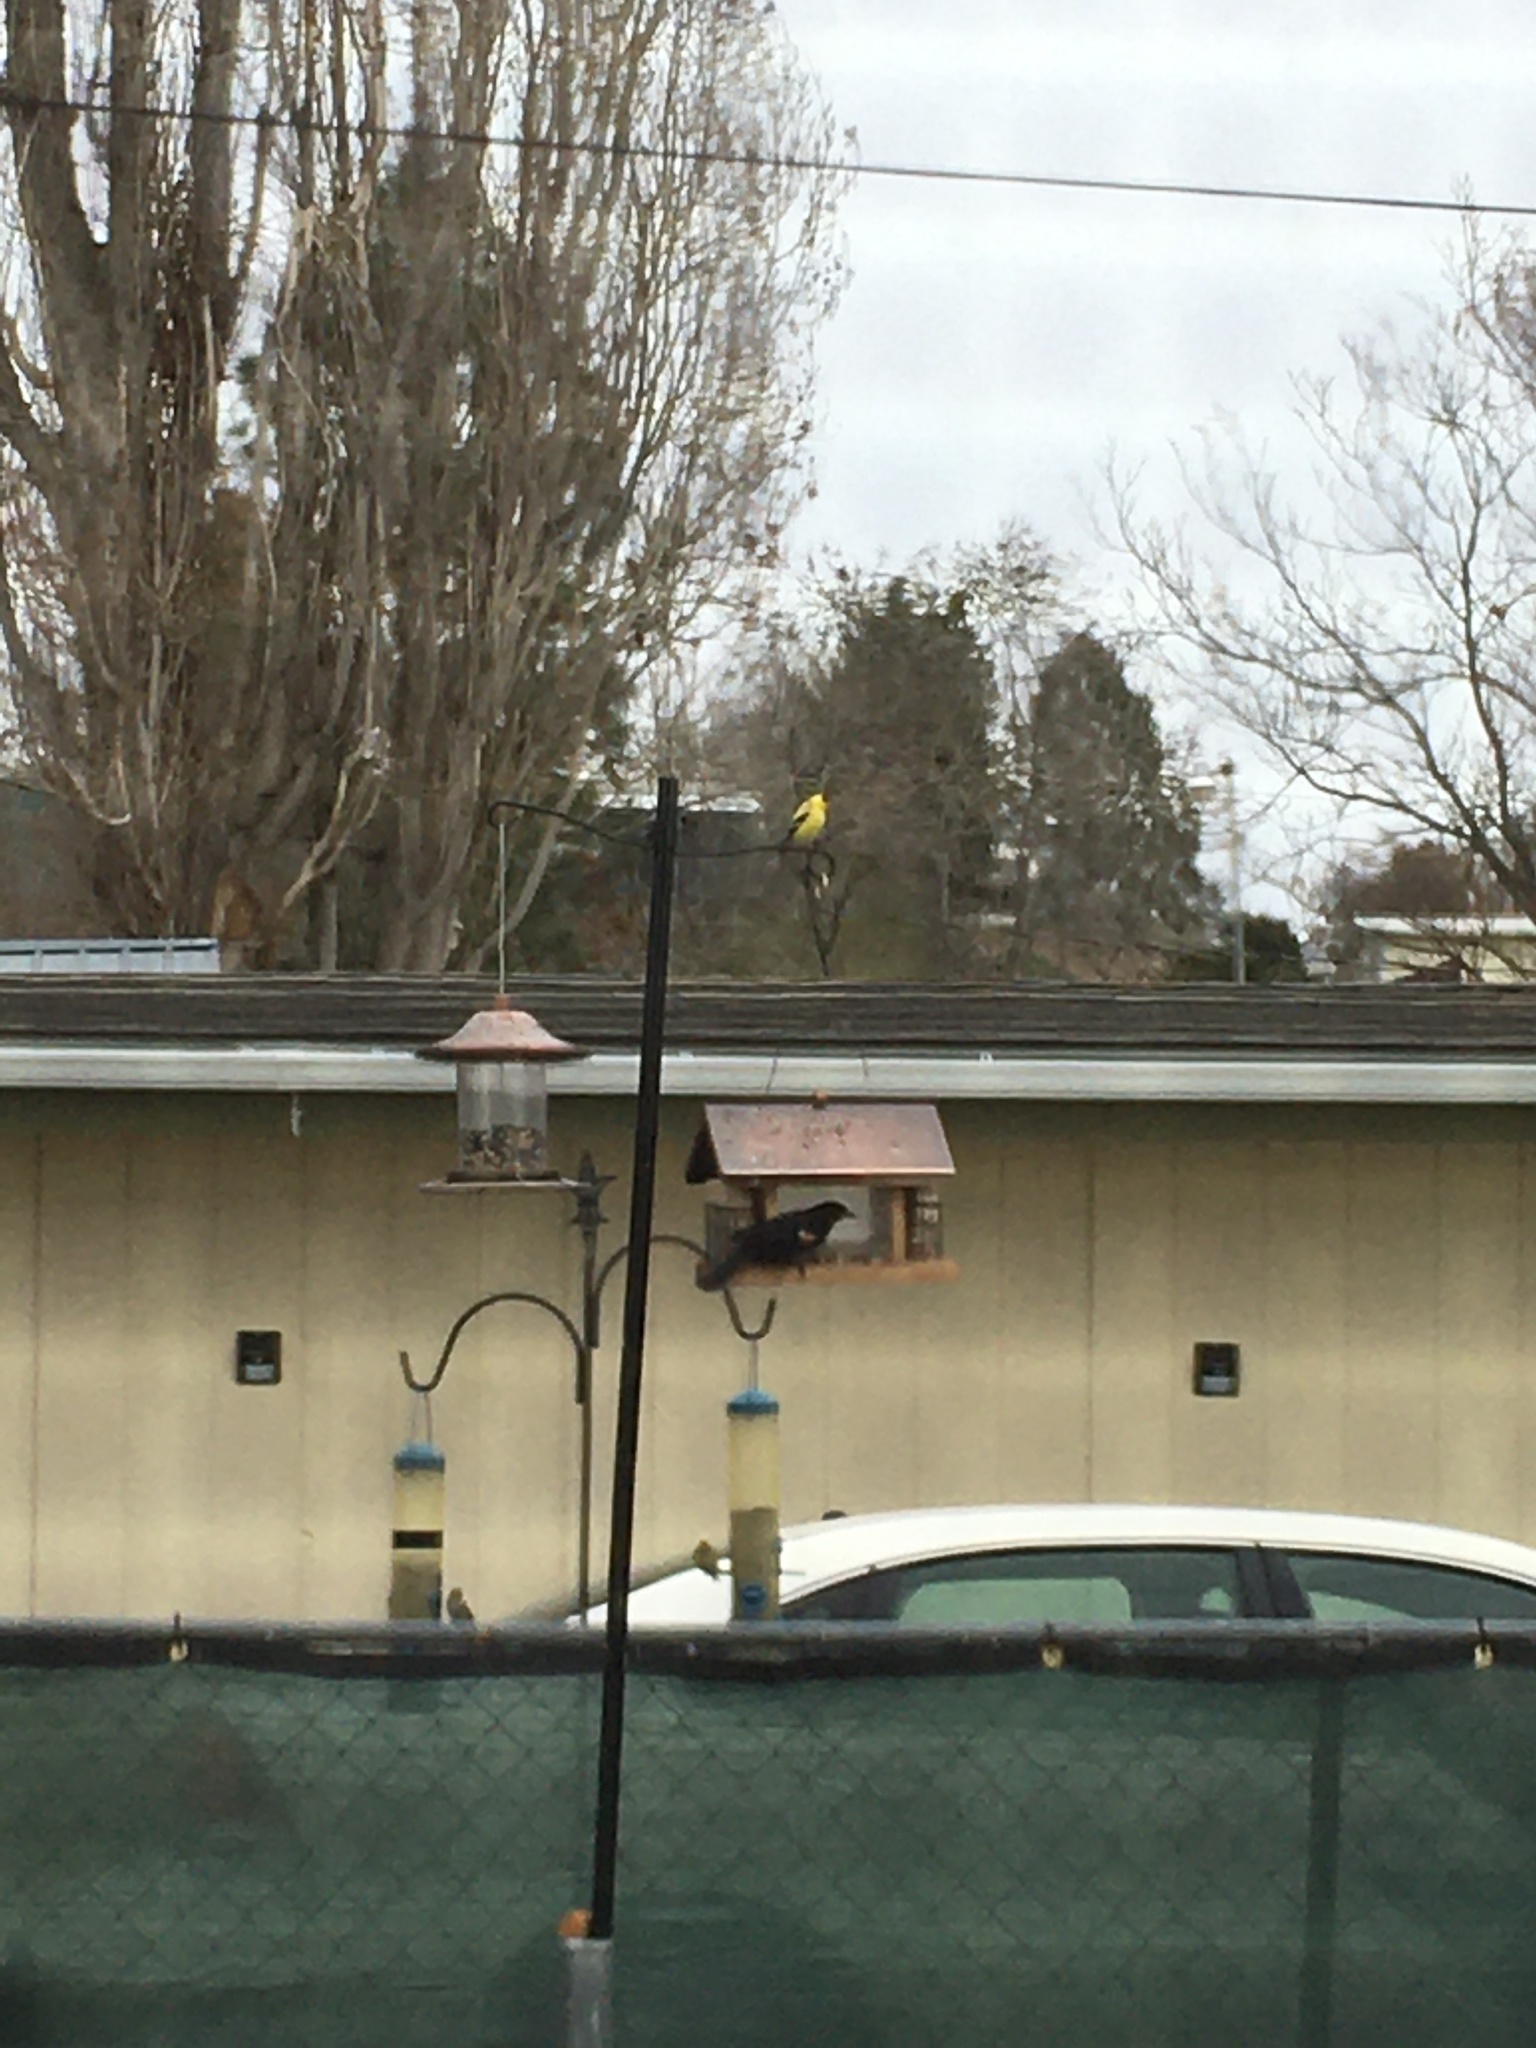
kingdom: Animalia
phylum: Chordata
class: Aves
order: Passeriformes
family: Icteridae
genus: Agelaius
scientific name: Agelaius phoeniceus
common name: Red-winged blackbird
